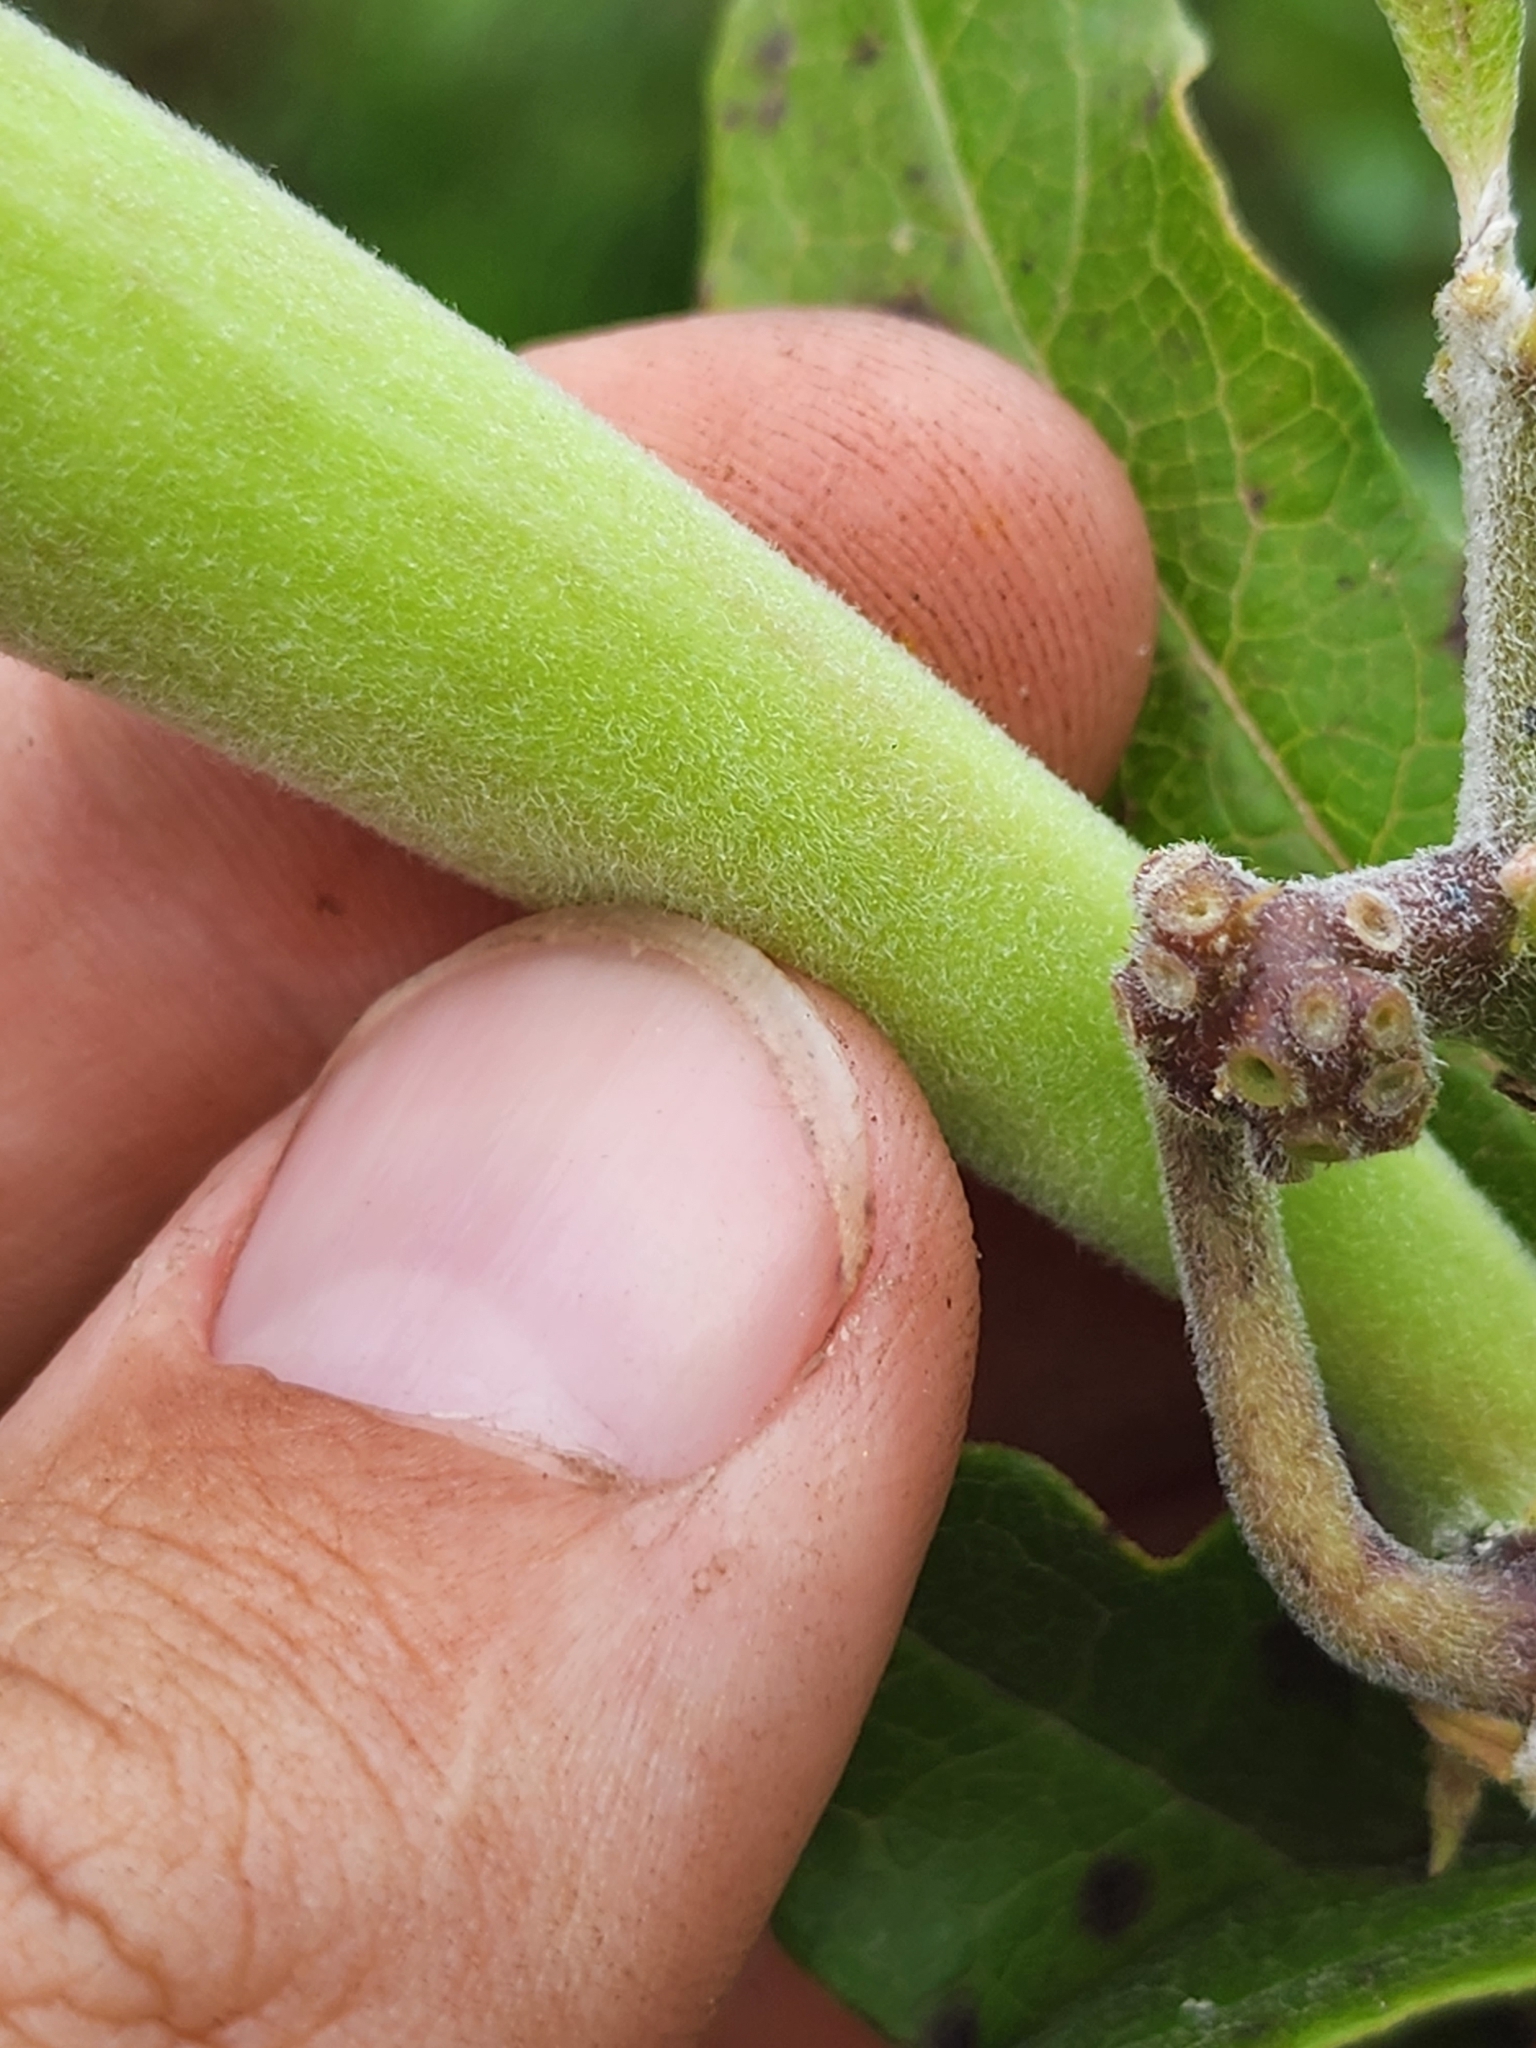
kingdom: Plantae
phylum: Tracheophyta
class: Magnoliopsida
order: Gentianales
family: Apocynaceae
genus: Asclepias
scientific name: Asclepias tomentosa
